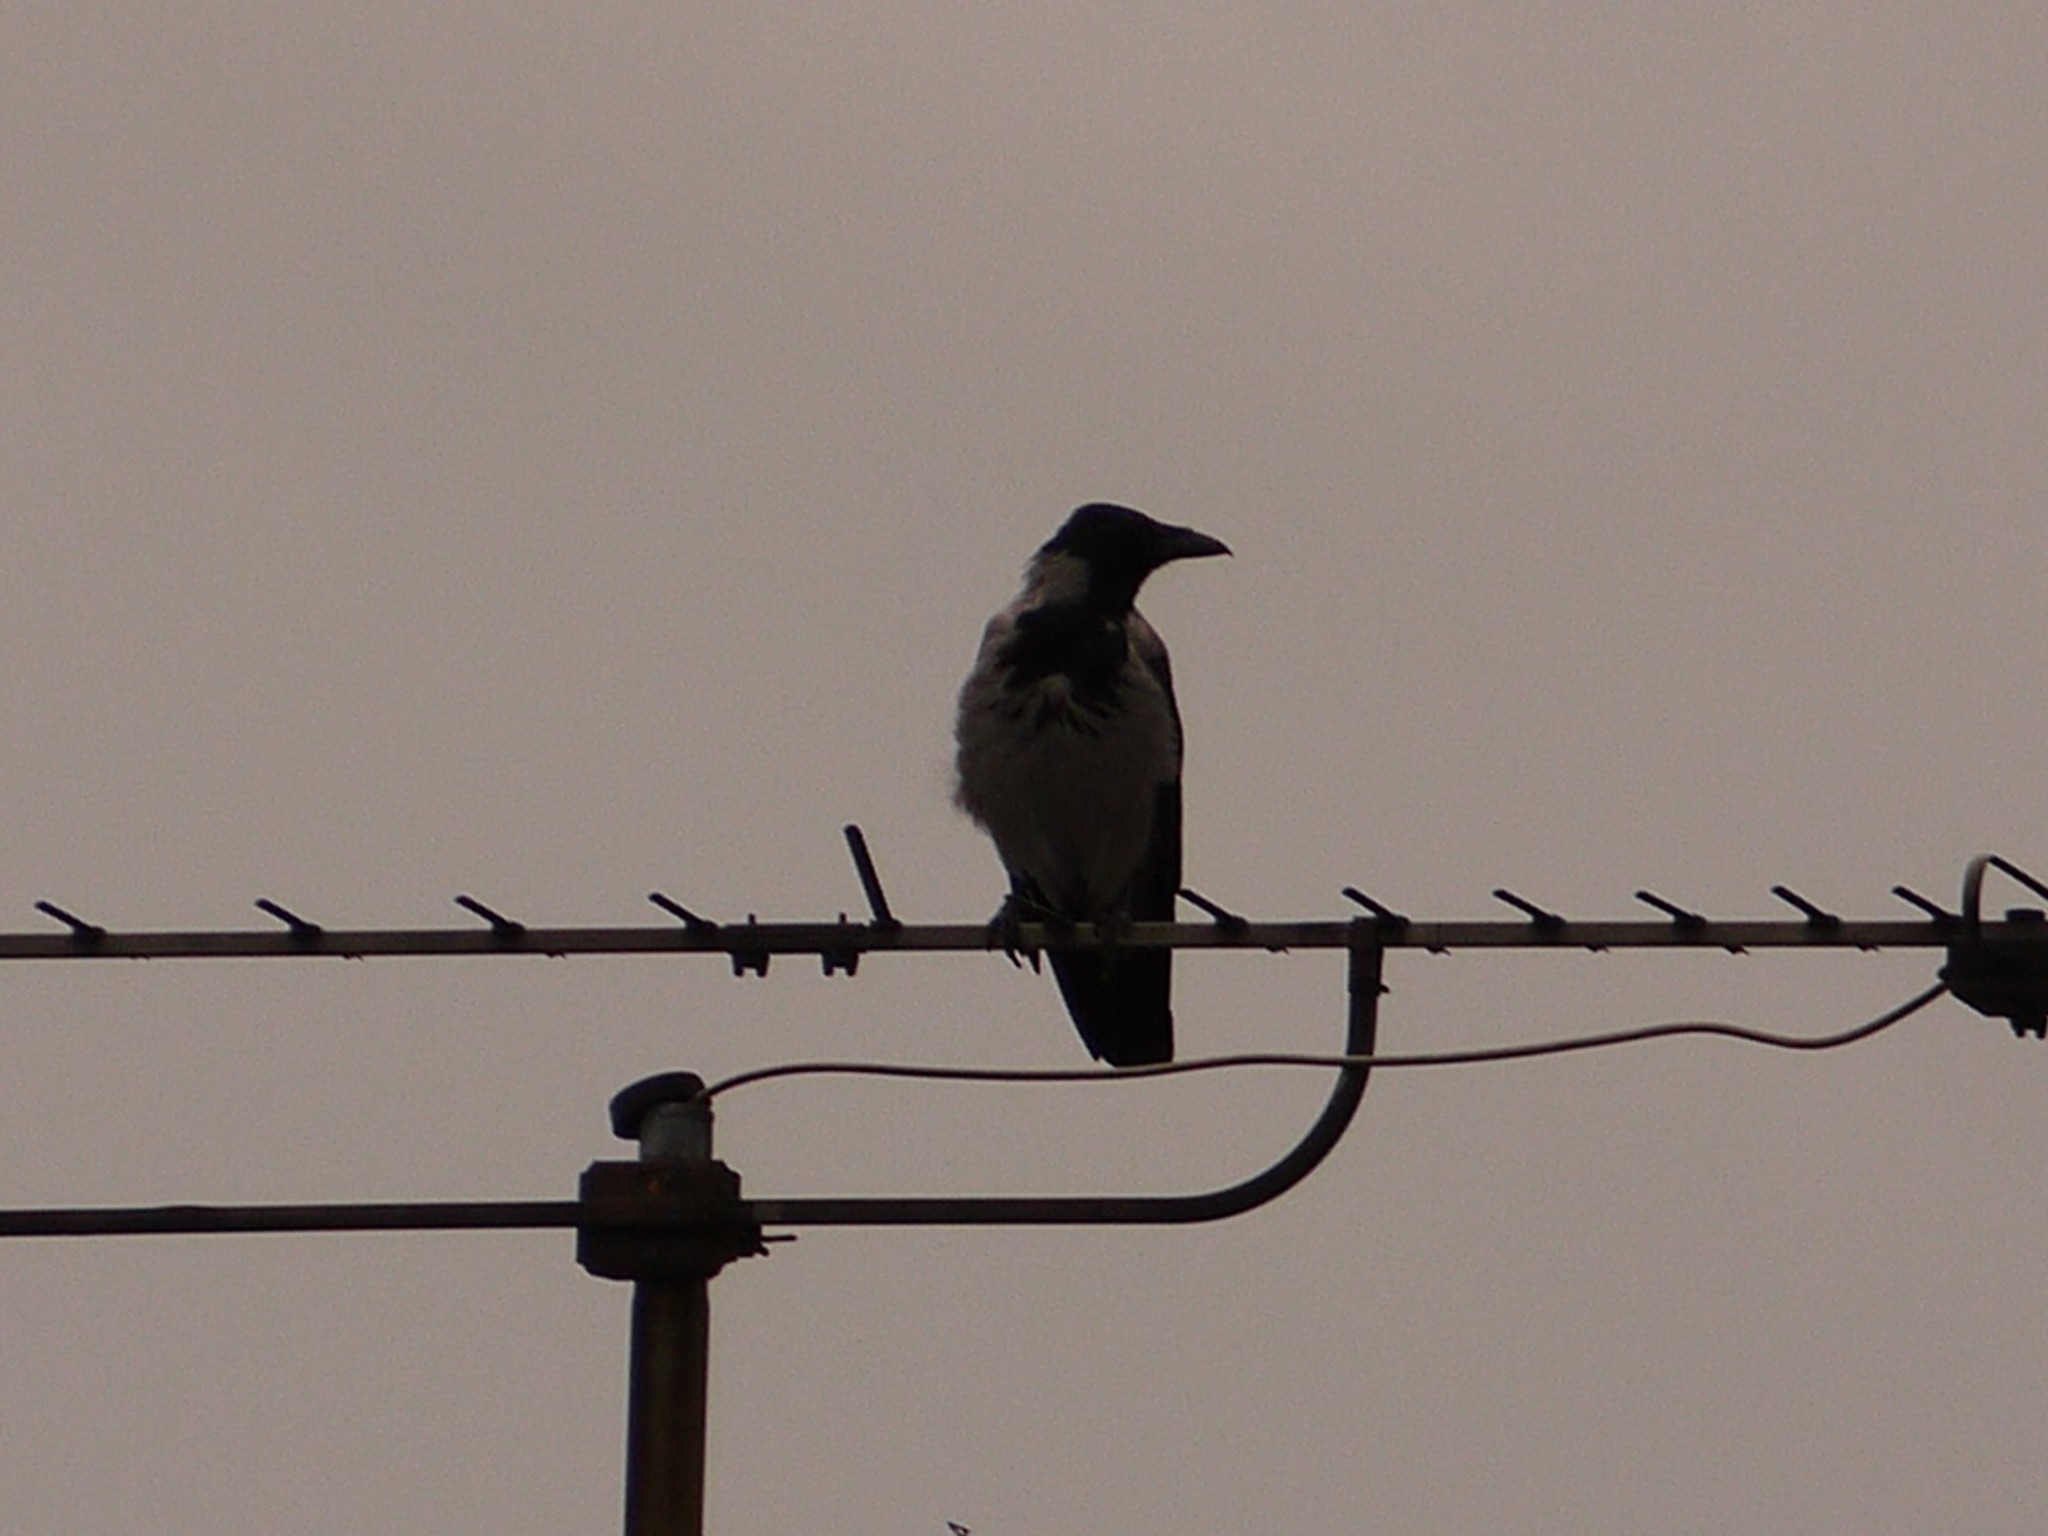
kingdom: Animalia
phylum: Chordata
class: Aves
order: Passeriformes
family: Corvidae
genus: Corvus
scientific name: Corvus cornix
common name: Hooded crow
